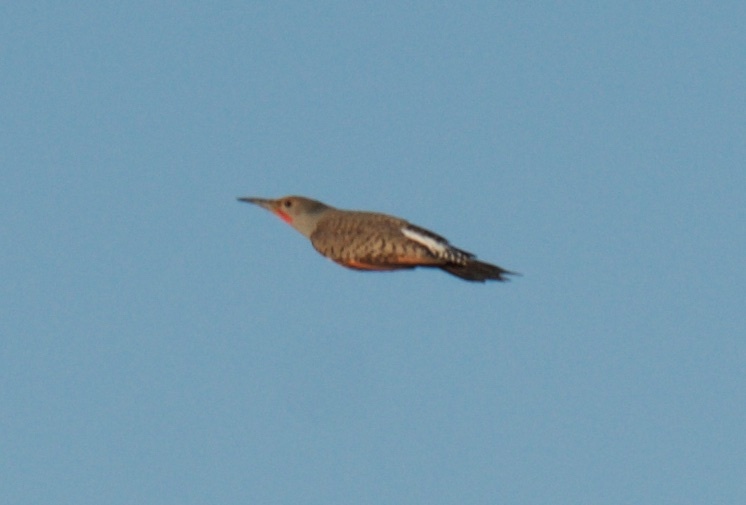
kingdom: Animalia
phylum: Chordata
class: Aves
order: Piciformes
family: Picidae
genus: Colaptes
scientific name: Colaptes auratus
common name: Northern flicker
